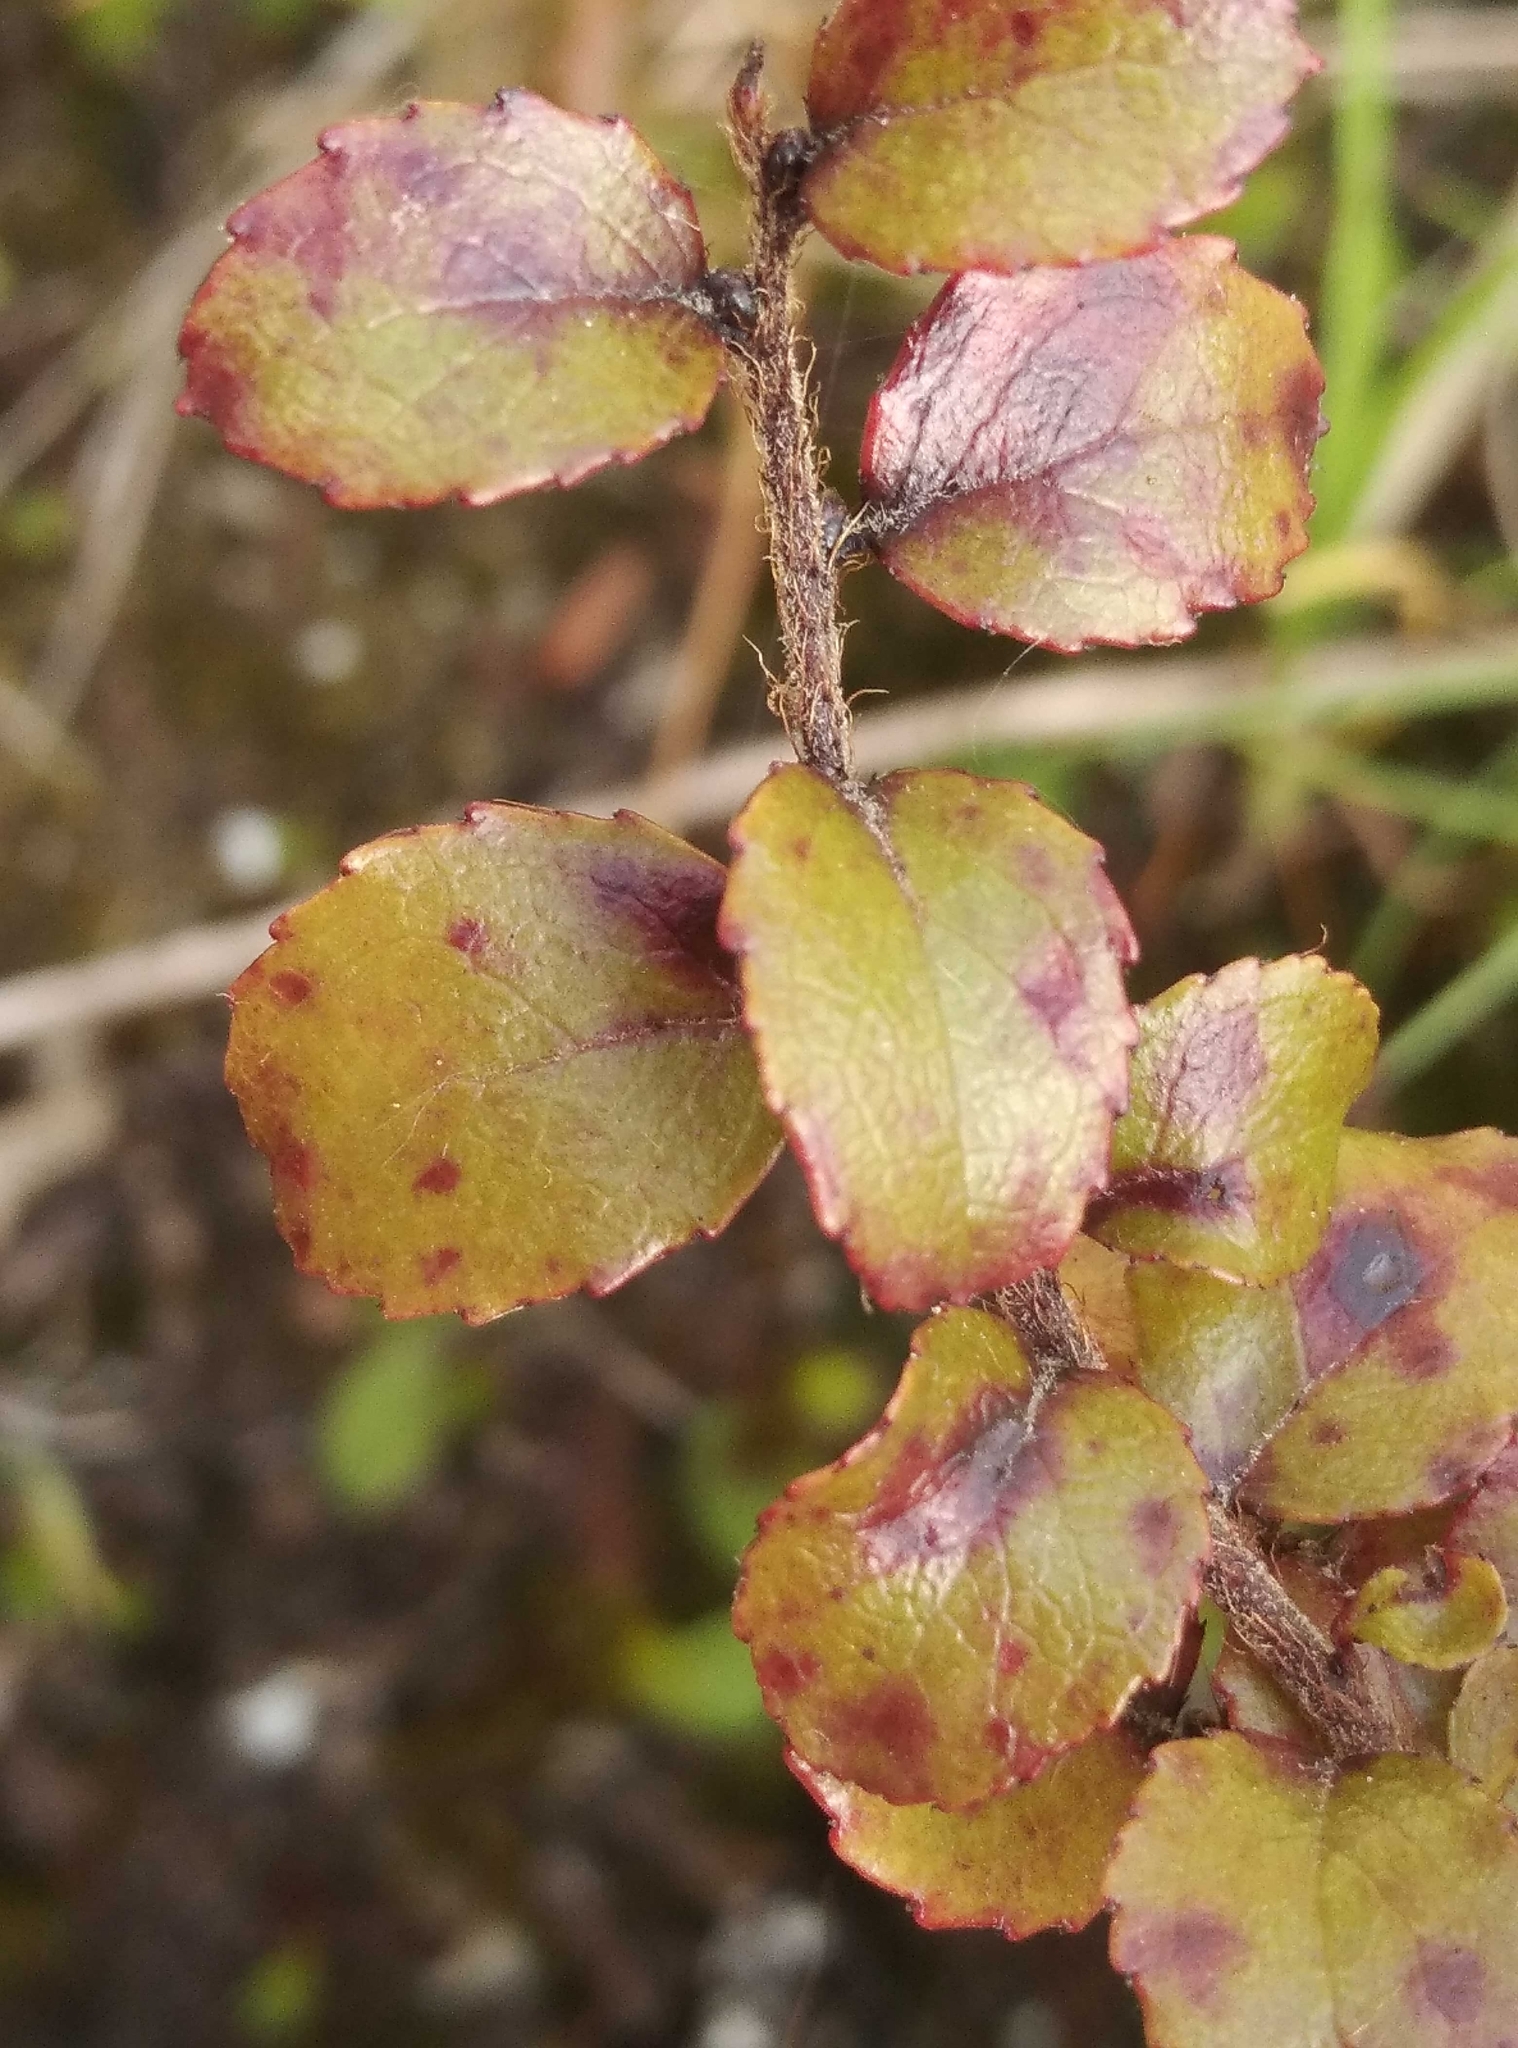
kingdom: Plantae
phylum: Tracheophyta
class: Magnoliopsida
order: Ericales
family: Ericaceae
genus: Gaultheria
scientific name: Gaultheria antipoda
